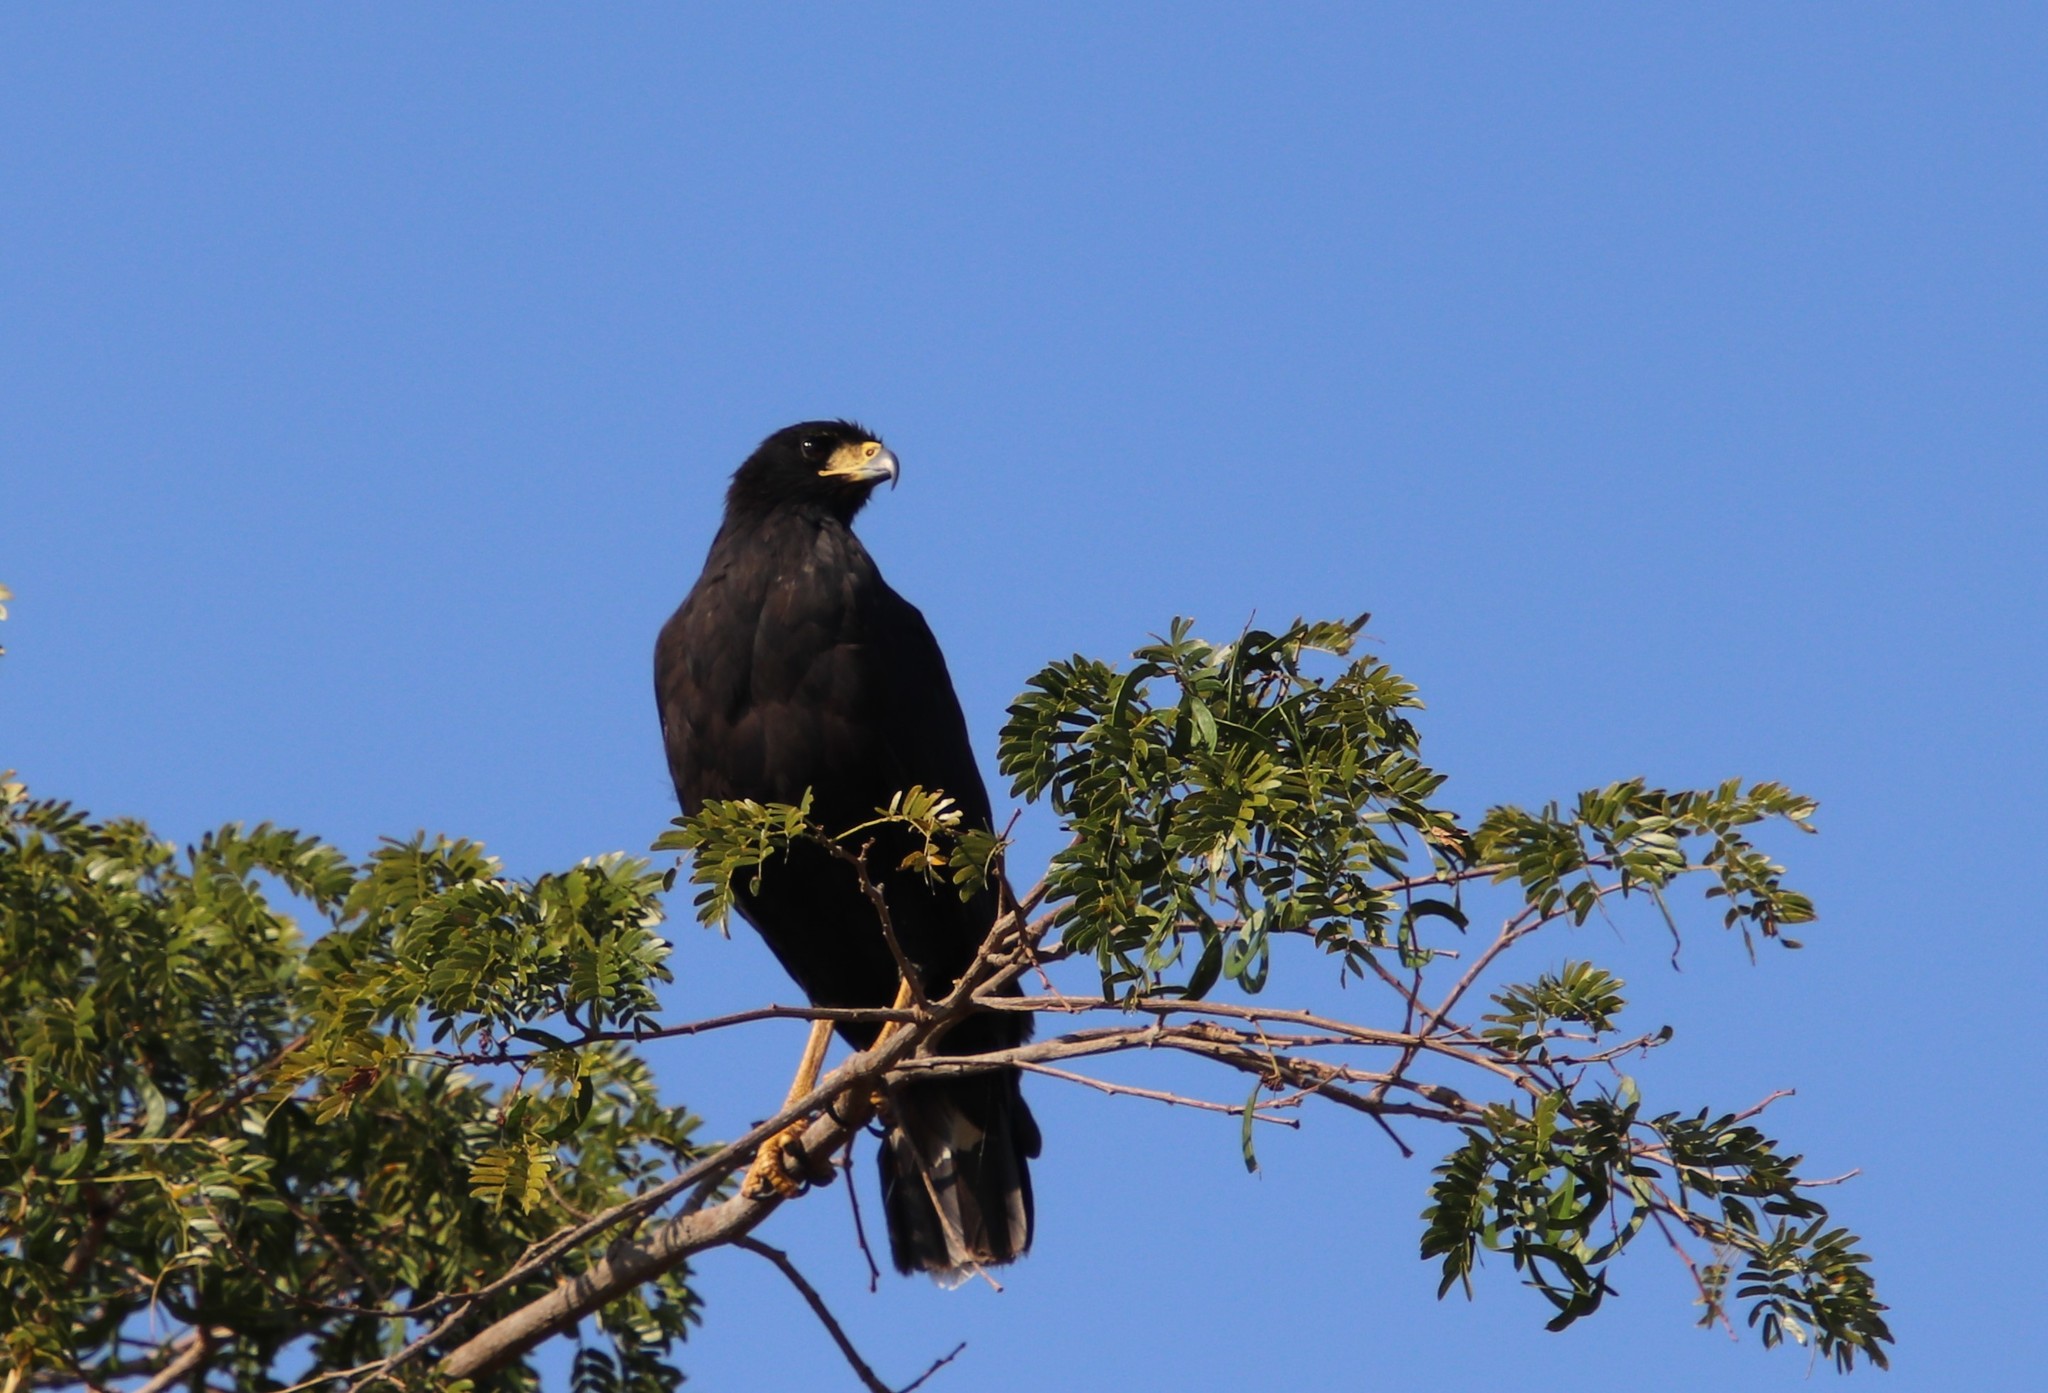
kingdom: Animalia
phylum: Chordata
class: Aves
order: Accipitriformes
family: Accipitridae
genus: Buteogallus
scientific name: Buteogallus urubitinga
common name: Great black hawk
